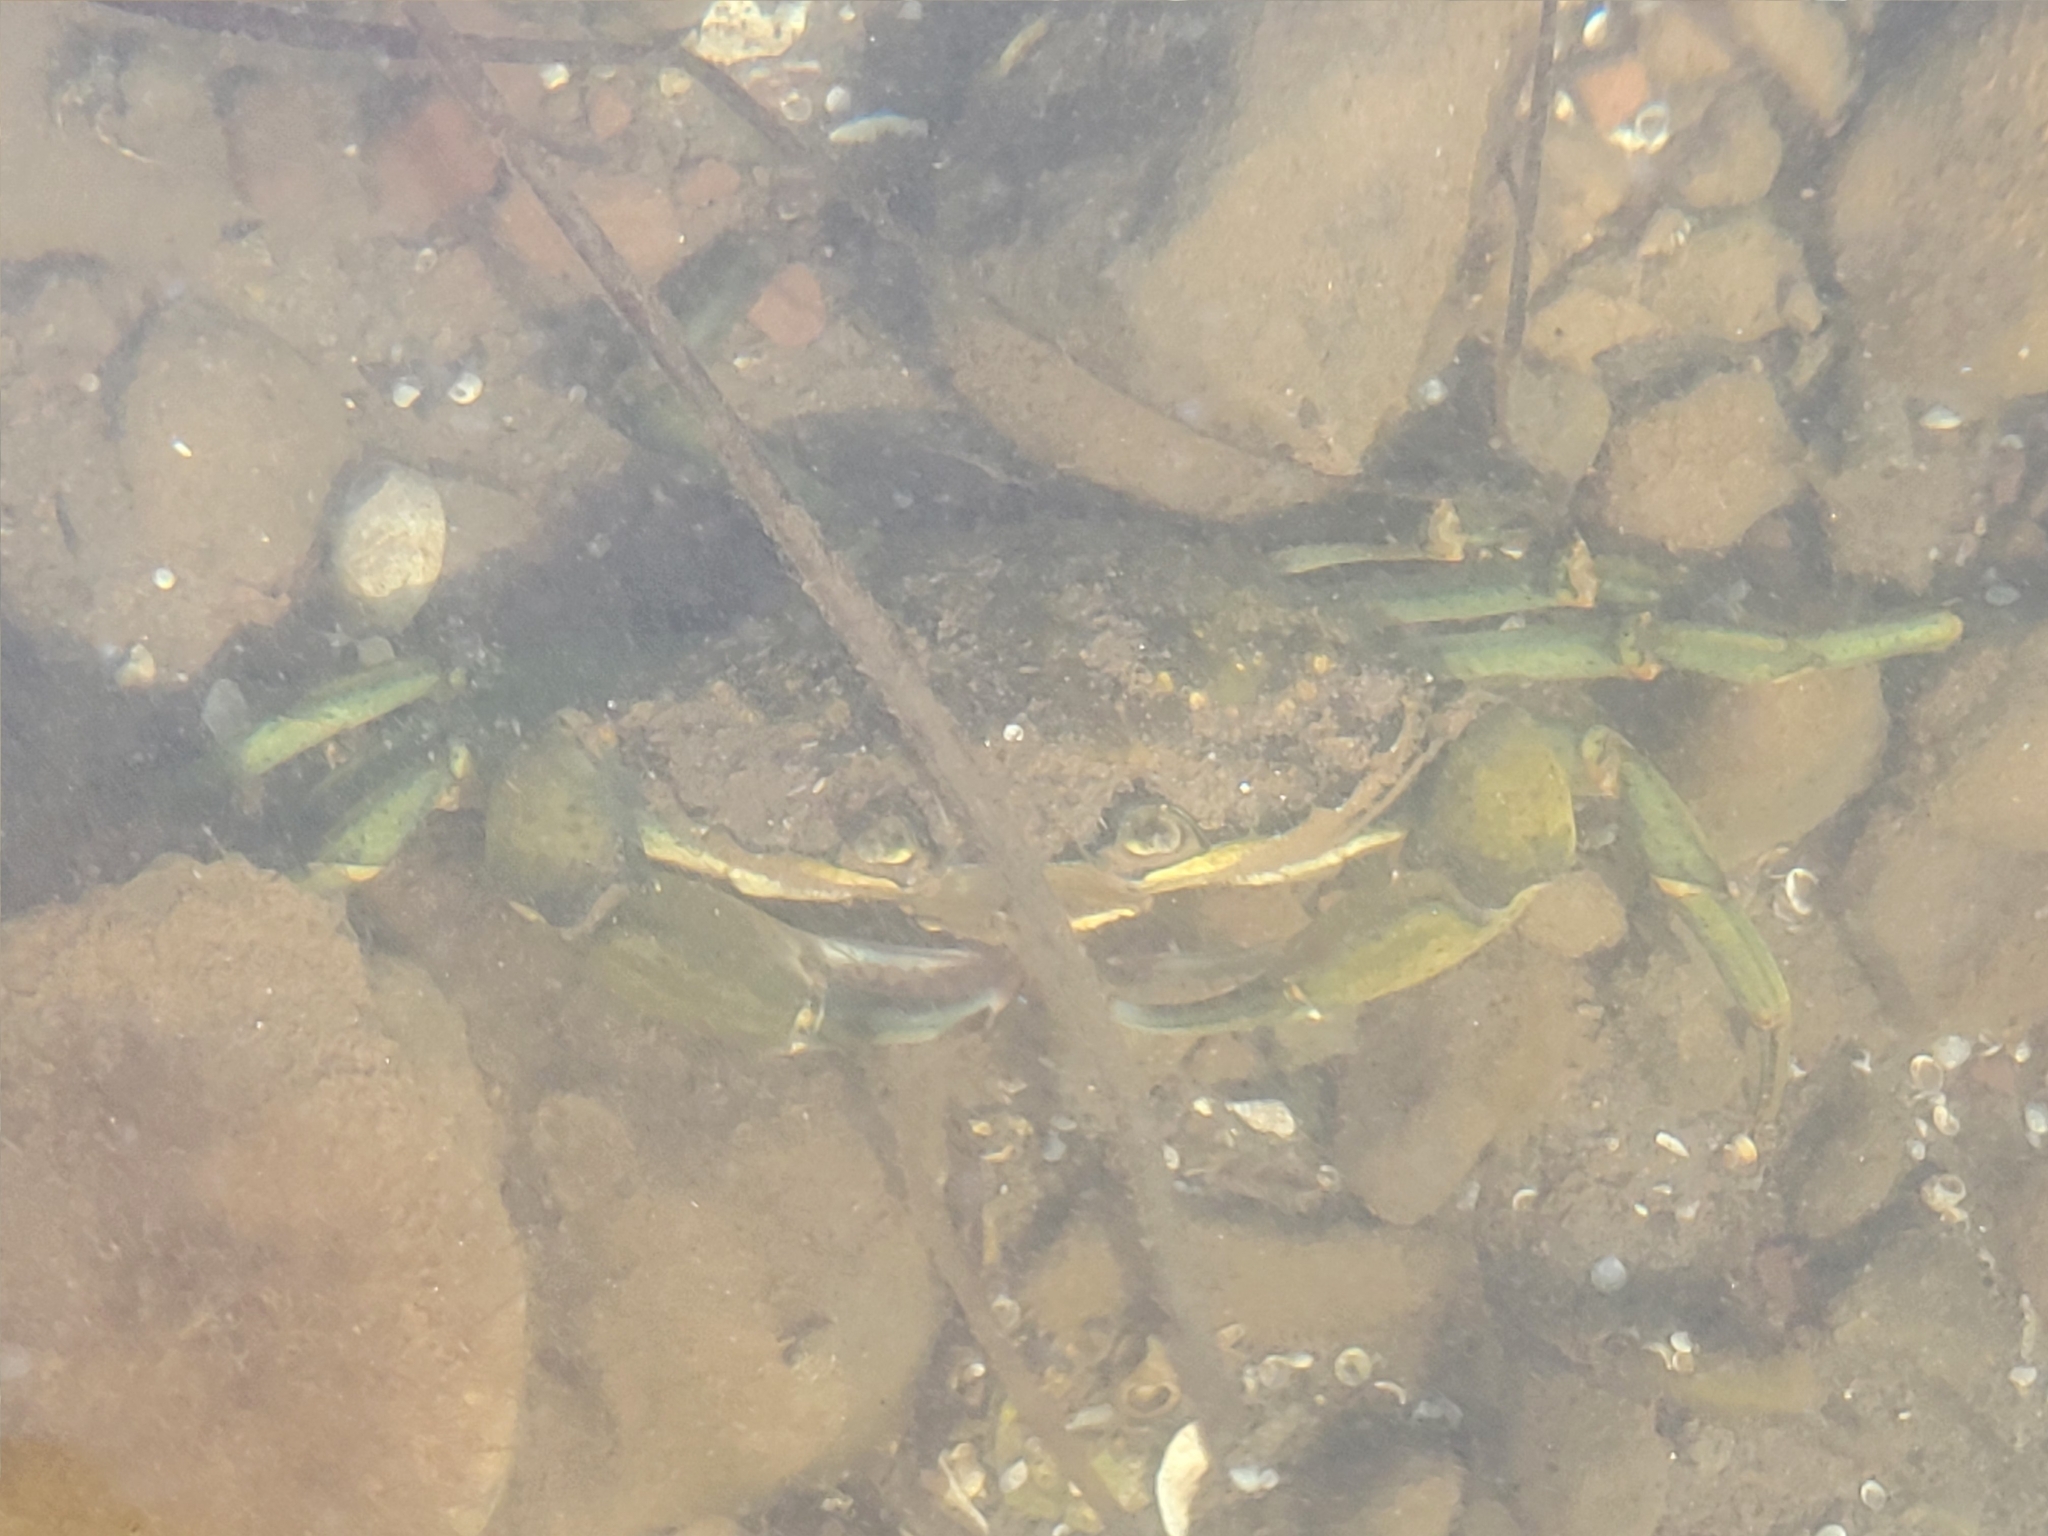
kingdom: Animalia
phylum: Arthropoda
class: Malacostraca
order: Decapoda
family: Carcinidae
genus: Carcinus
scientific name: Carcinus maenas
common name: European green crab
